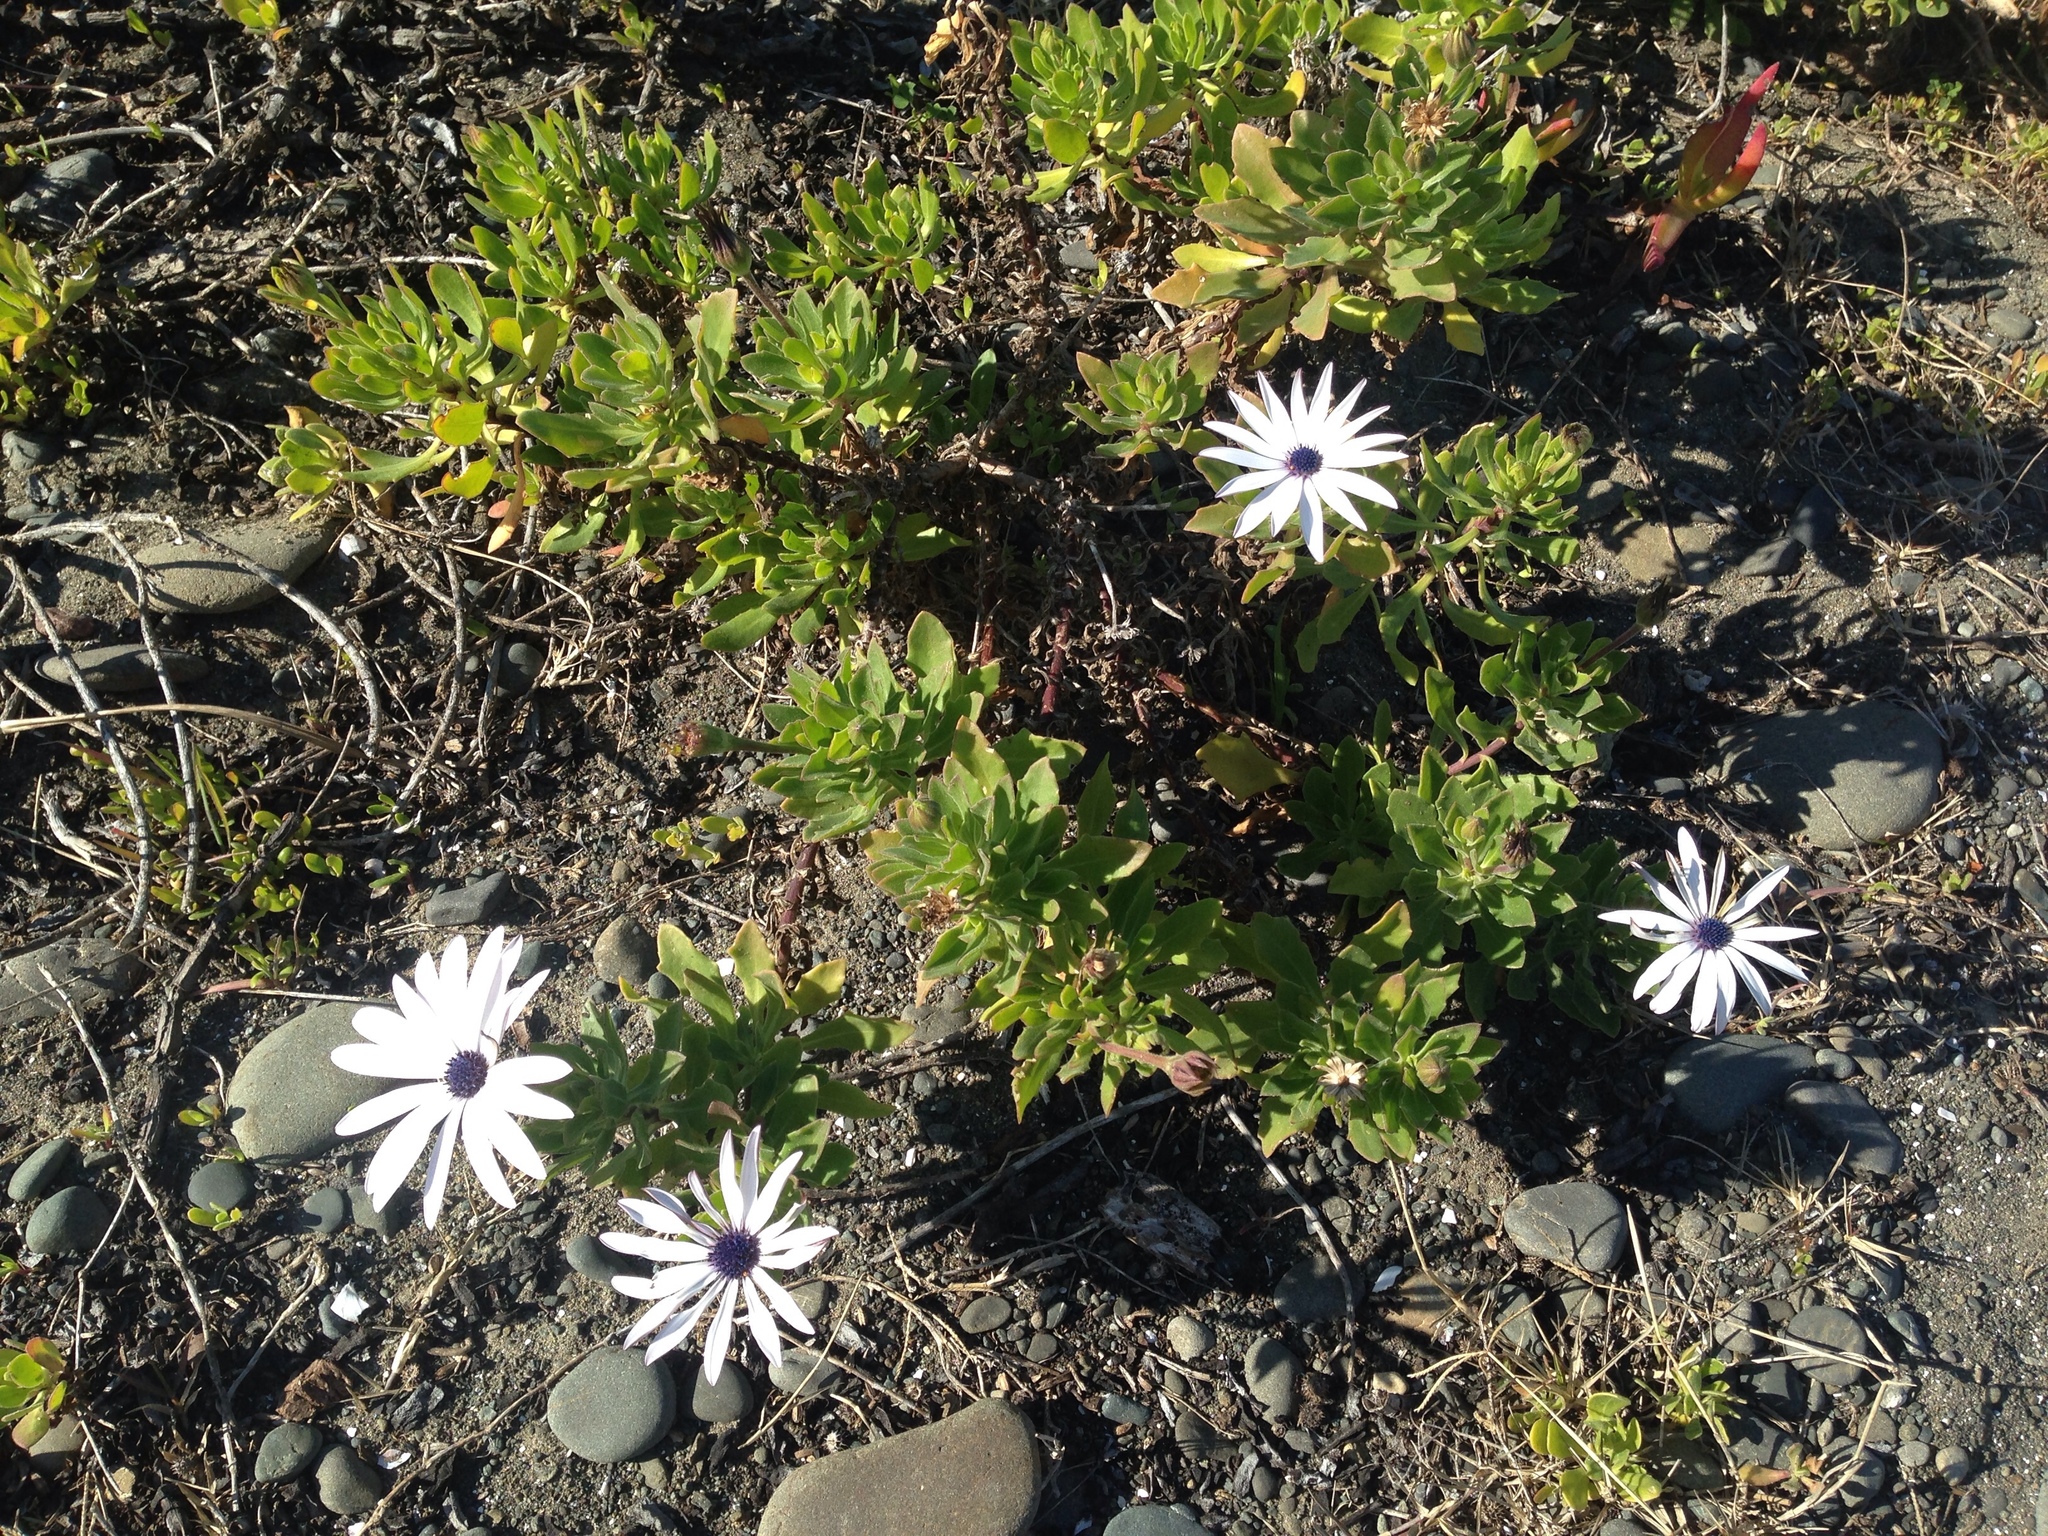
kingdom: Plantae
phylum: Tracheophyta
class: Magnoliopsida
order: Asterales
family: Asteraceae
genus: Dimorphotheca
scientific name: Dimorphotheca fruticosa
